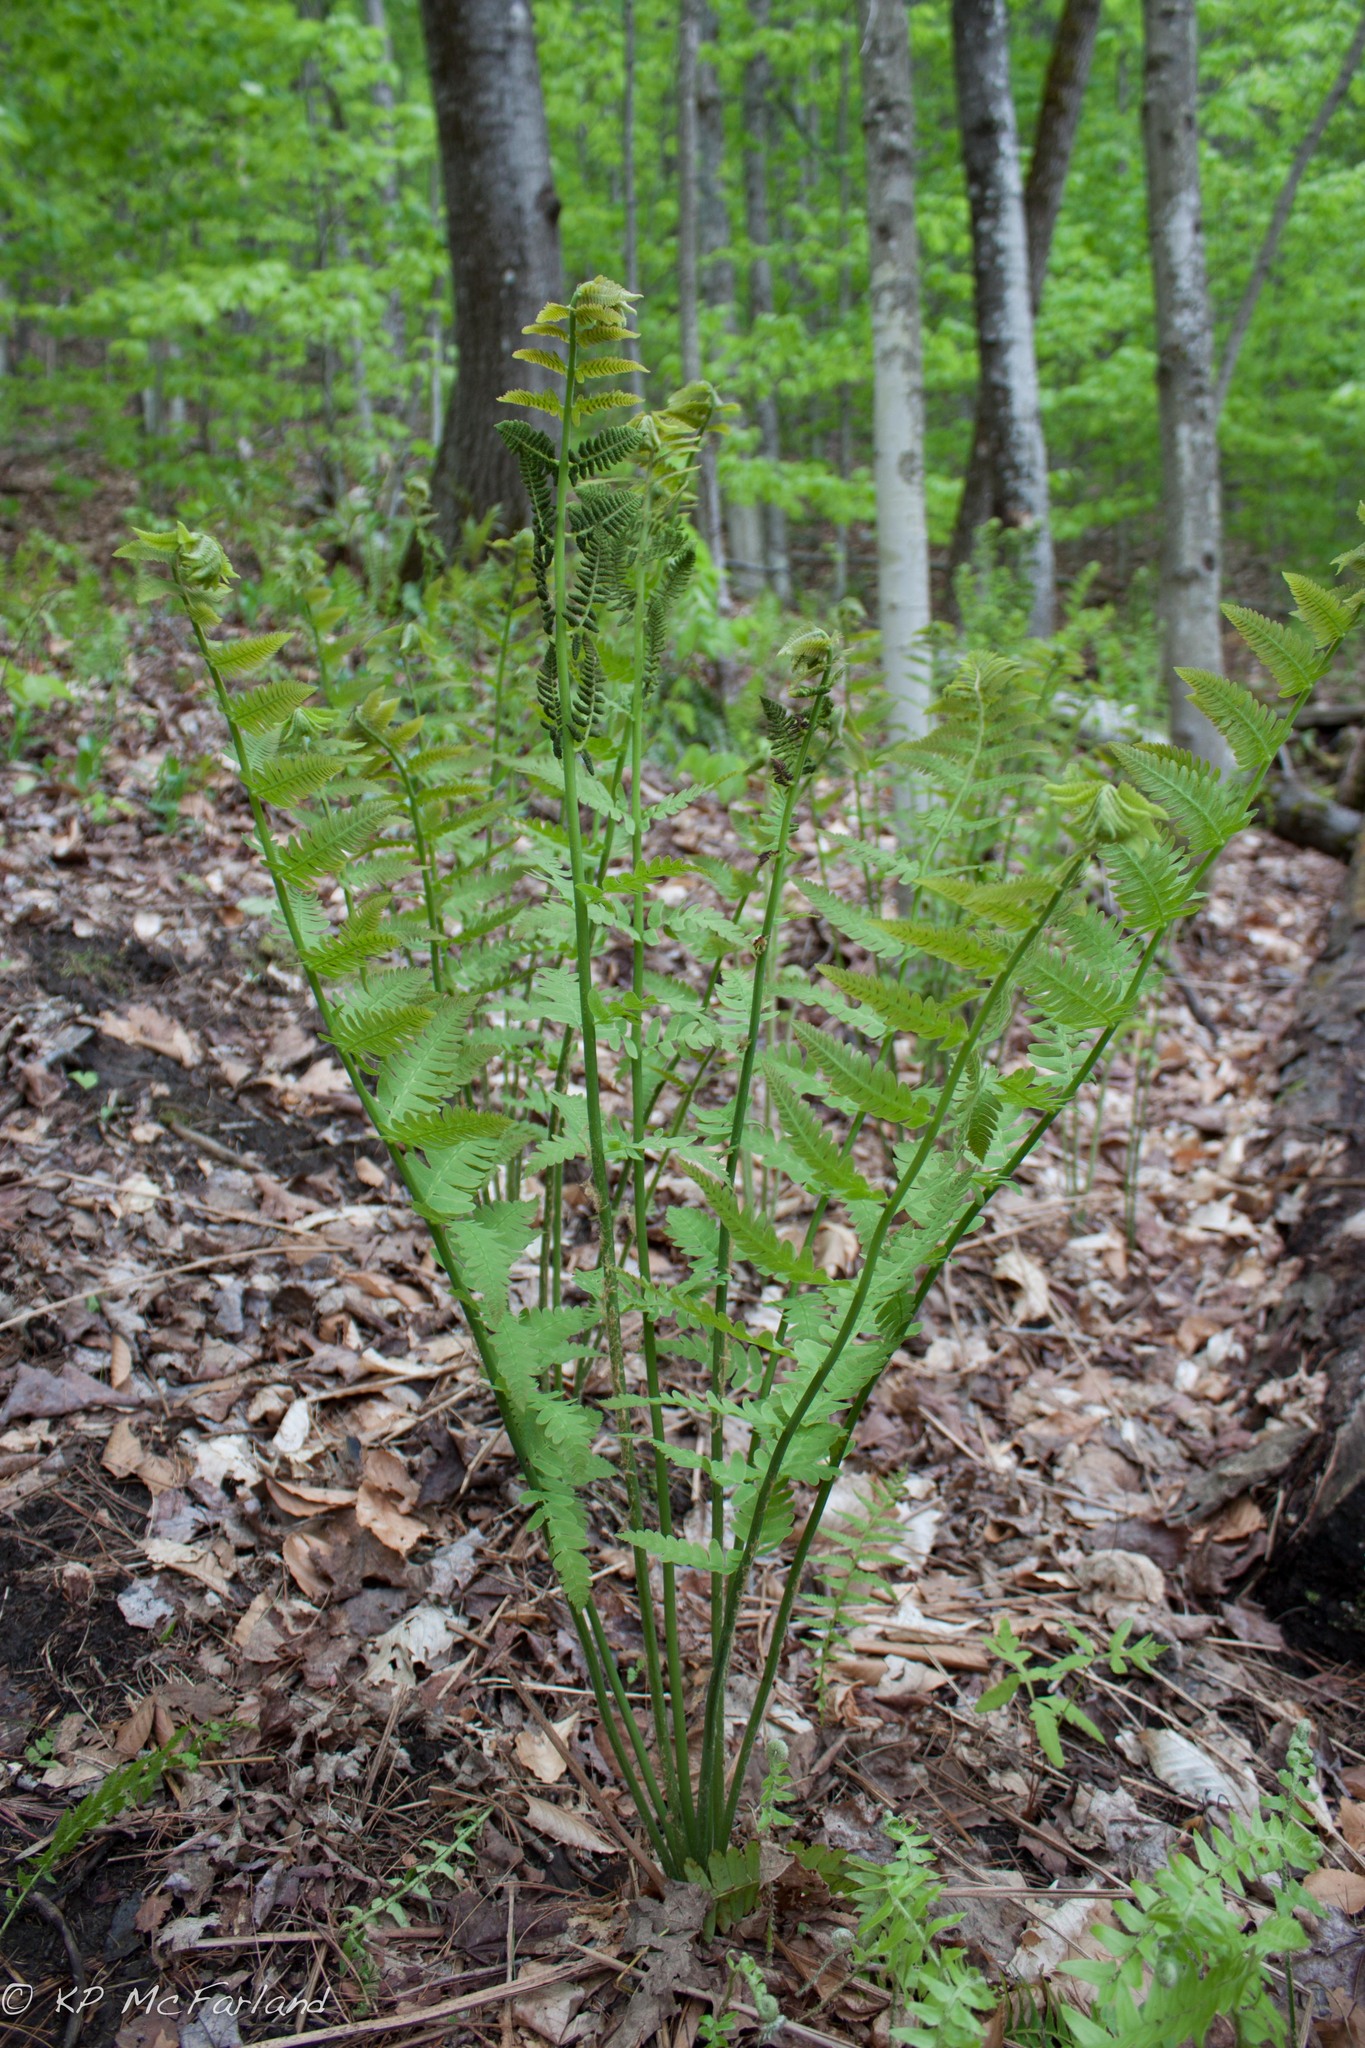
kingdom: Plantae
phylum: Tracheophyta
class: Polypodiopsida
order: Osmundales
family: Osmundaceae
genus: Claytosmunda
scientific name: Claytosmunda claytoniana
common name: Clayton's fern
